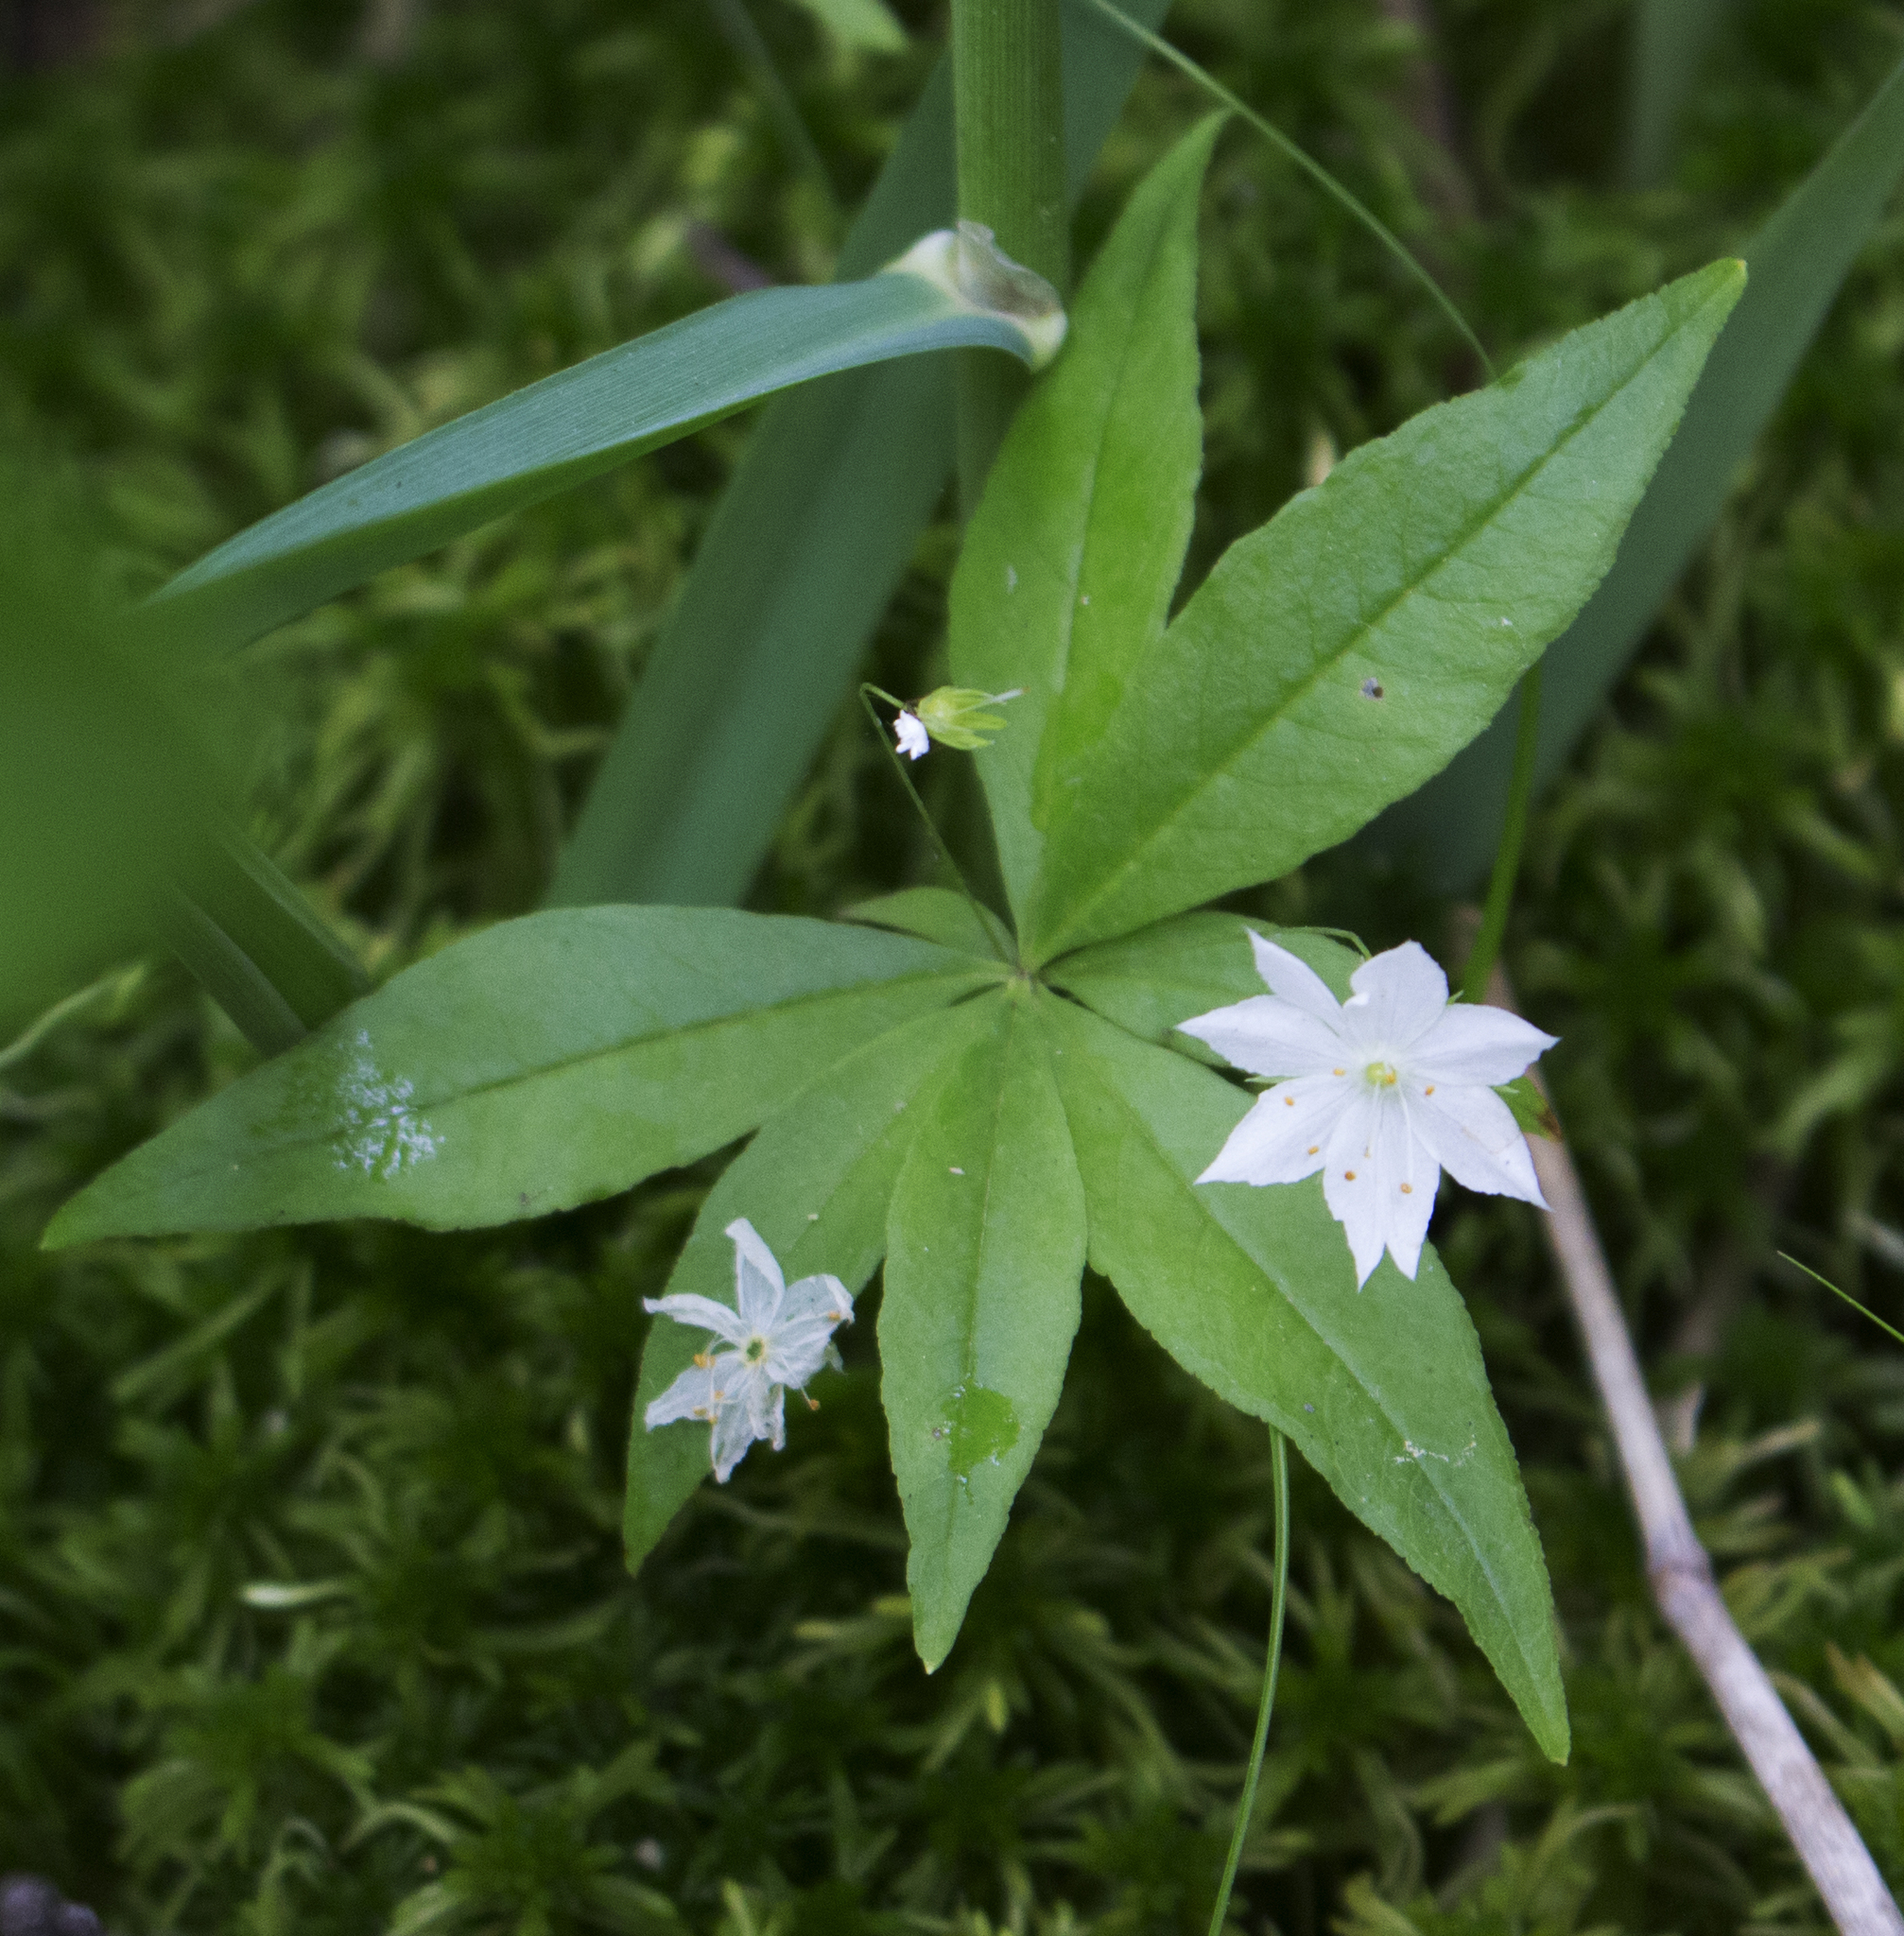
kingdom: Plantae
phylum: Tracheophyta
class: Magnoliopsida
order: Ericales
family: Primulaceae
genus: Lysimachia
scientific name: Lysimachia borealis
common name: American starflower
